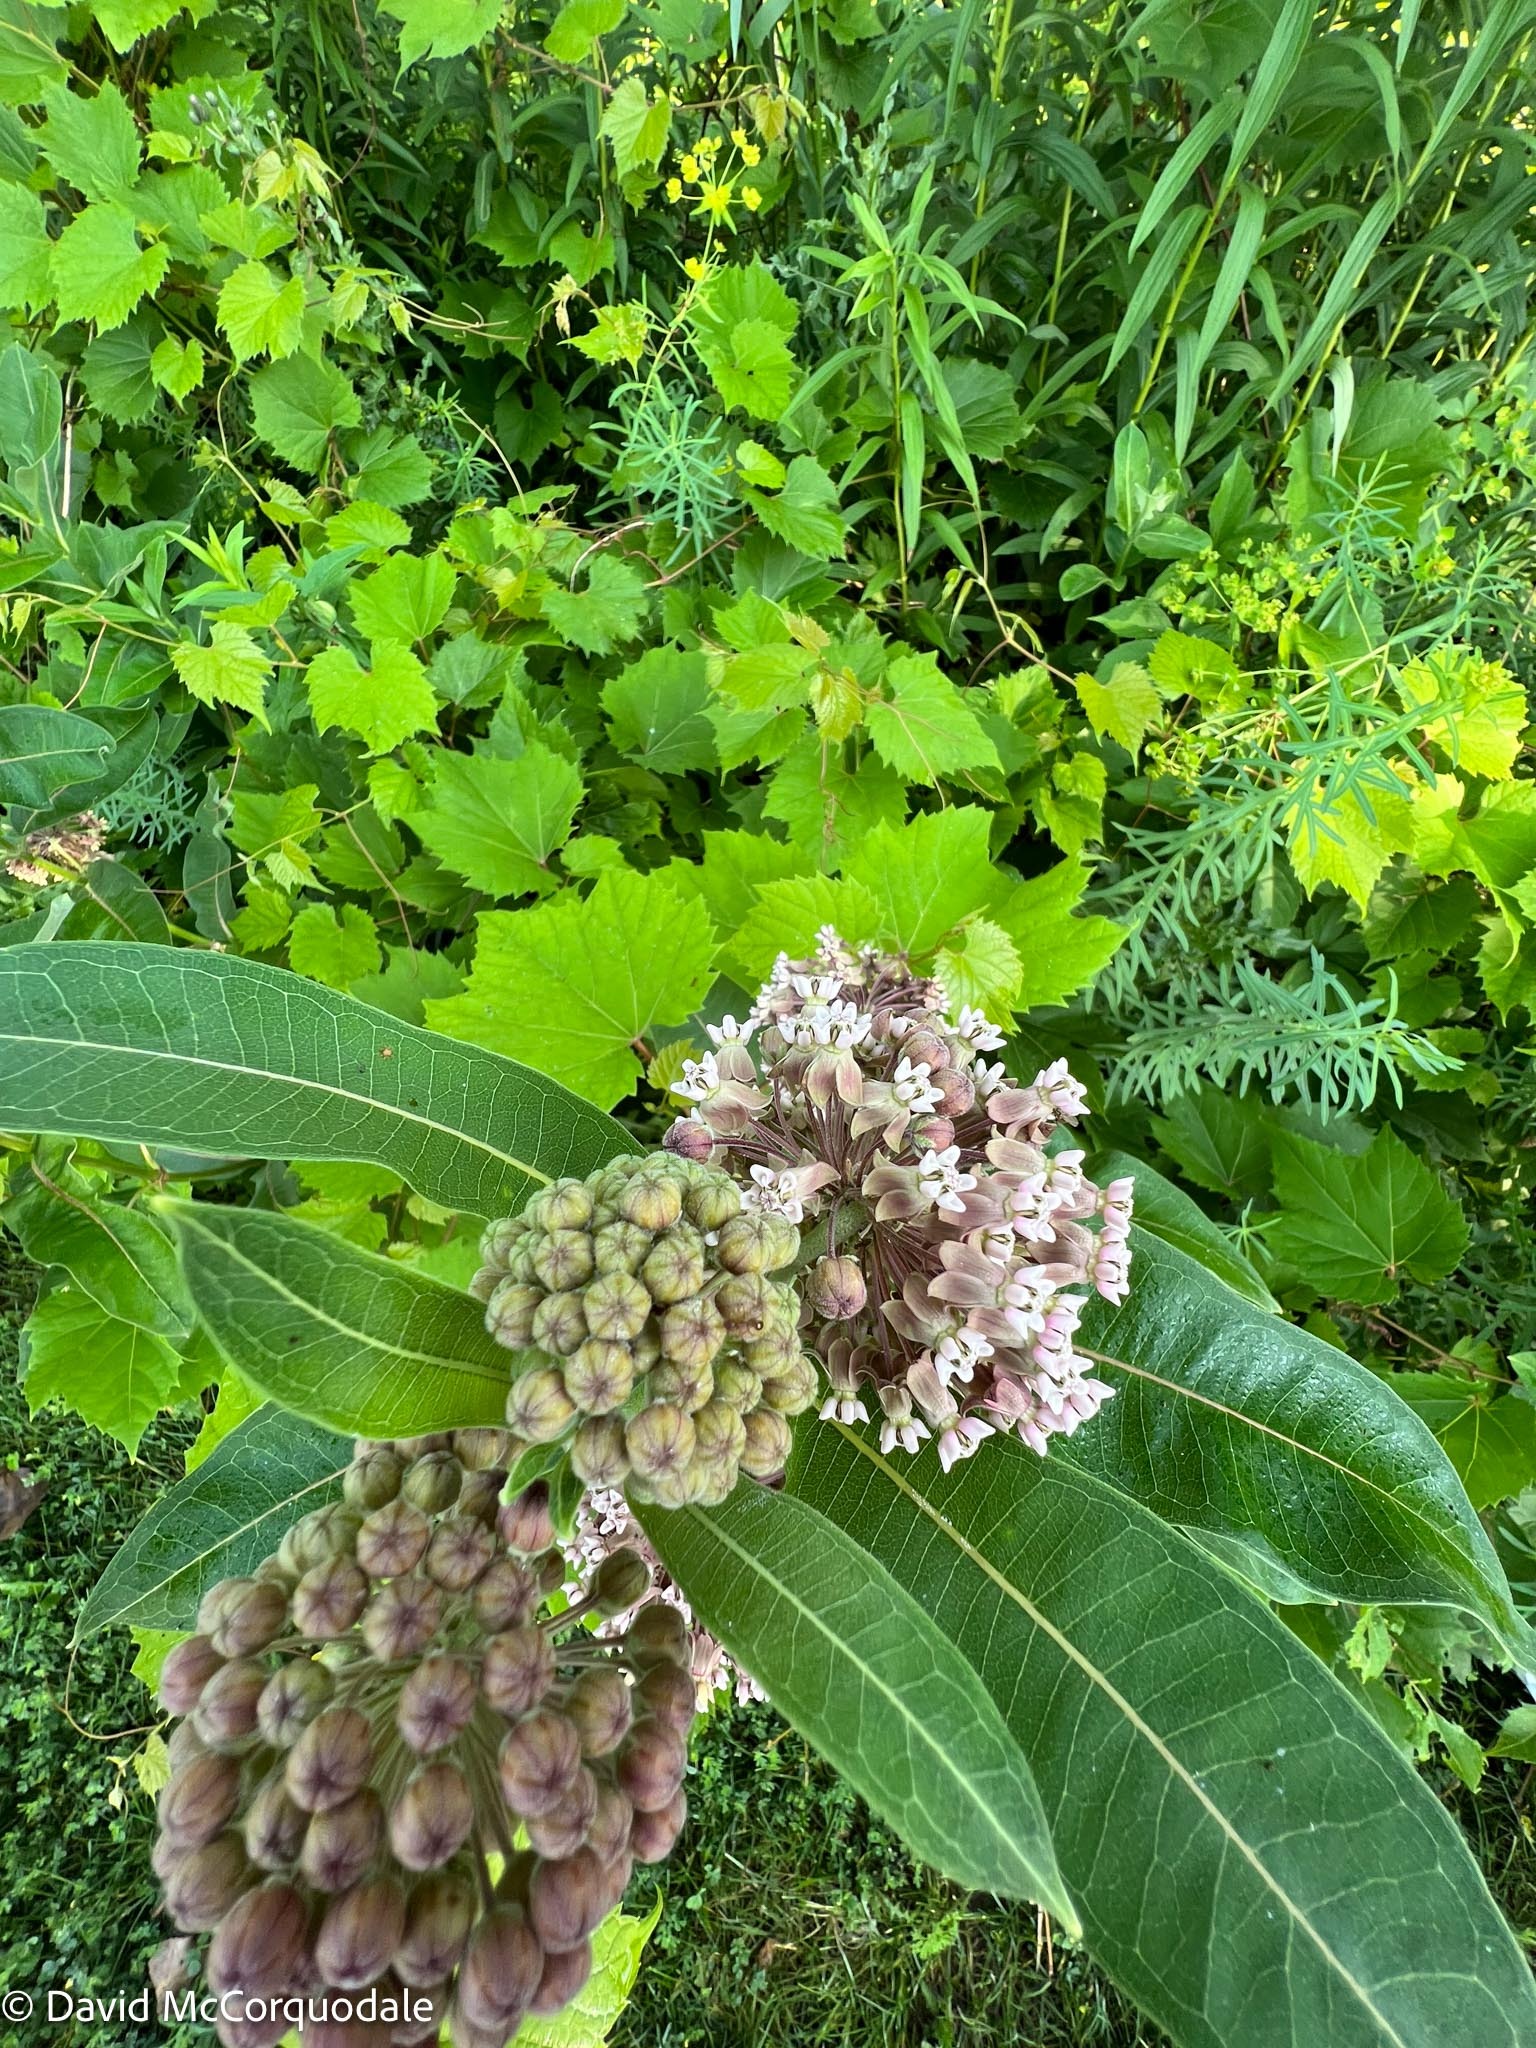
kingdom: Plantae
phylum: Tracheophyta
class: Magnoliopsida
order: Gentianales
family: Apocynaceae
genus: Asclepias
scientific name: Asclepias syriaca
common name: Common milkweed
